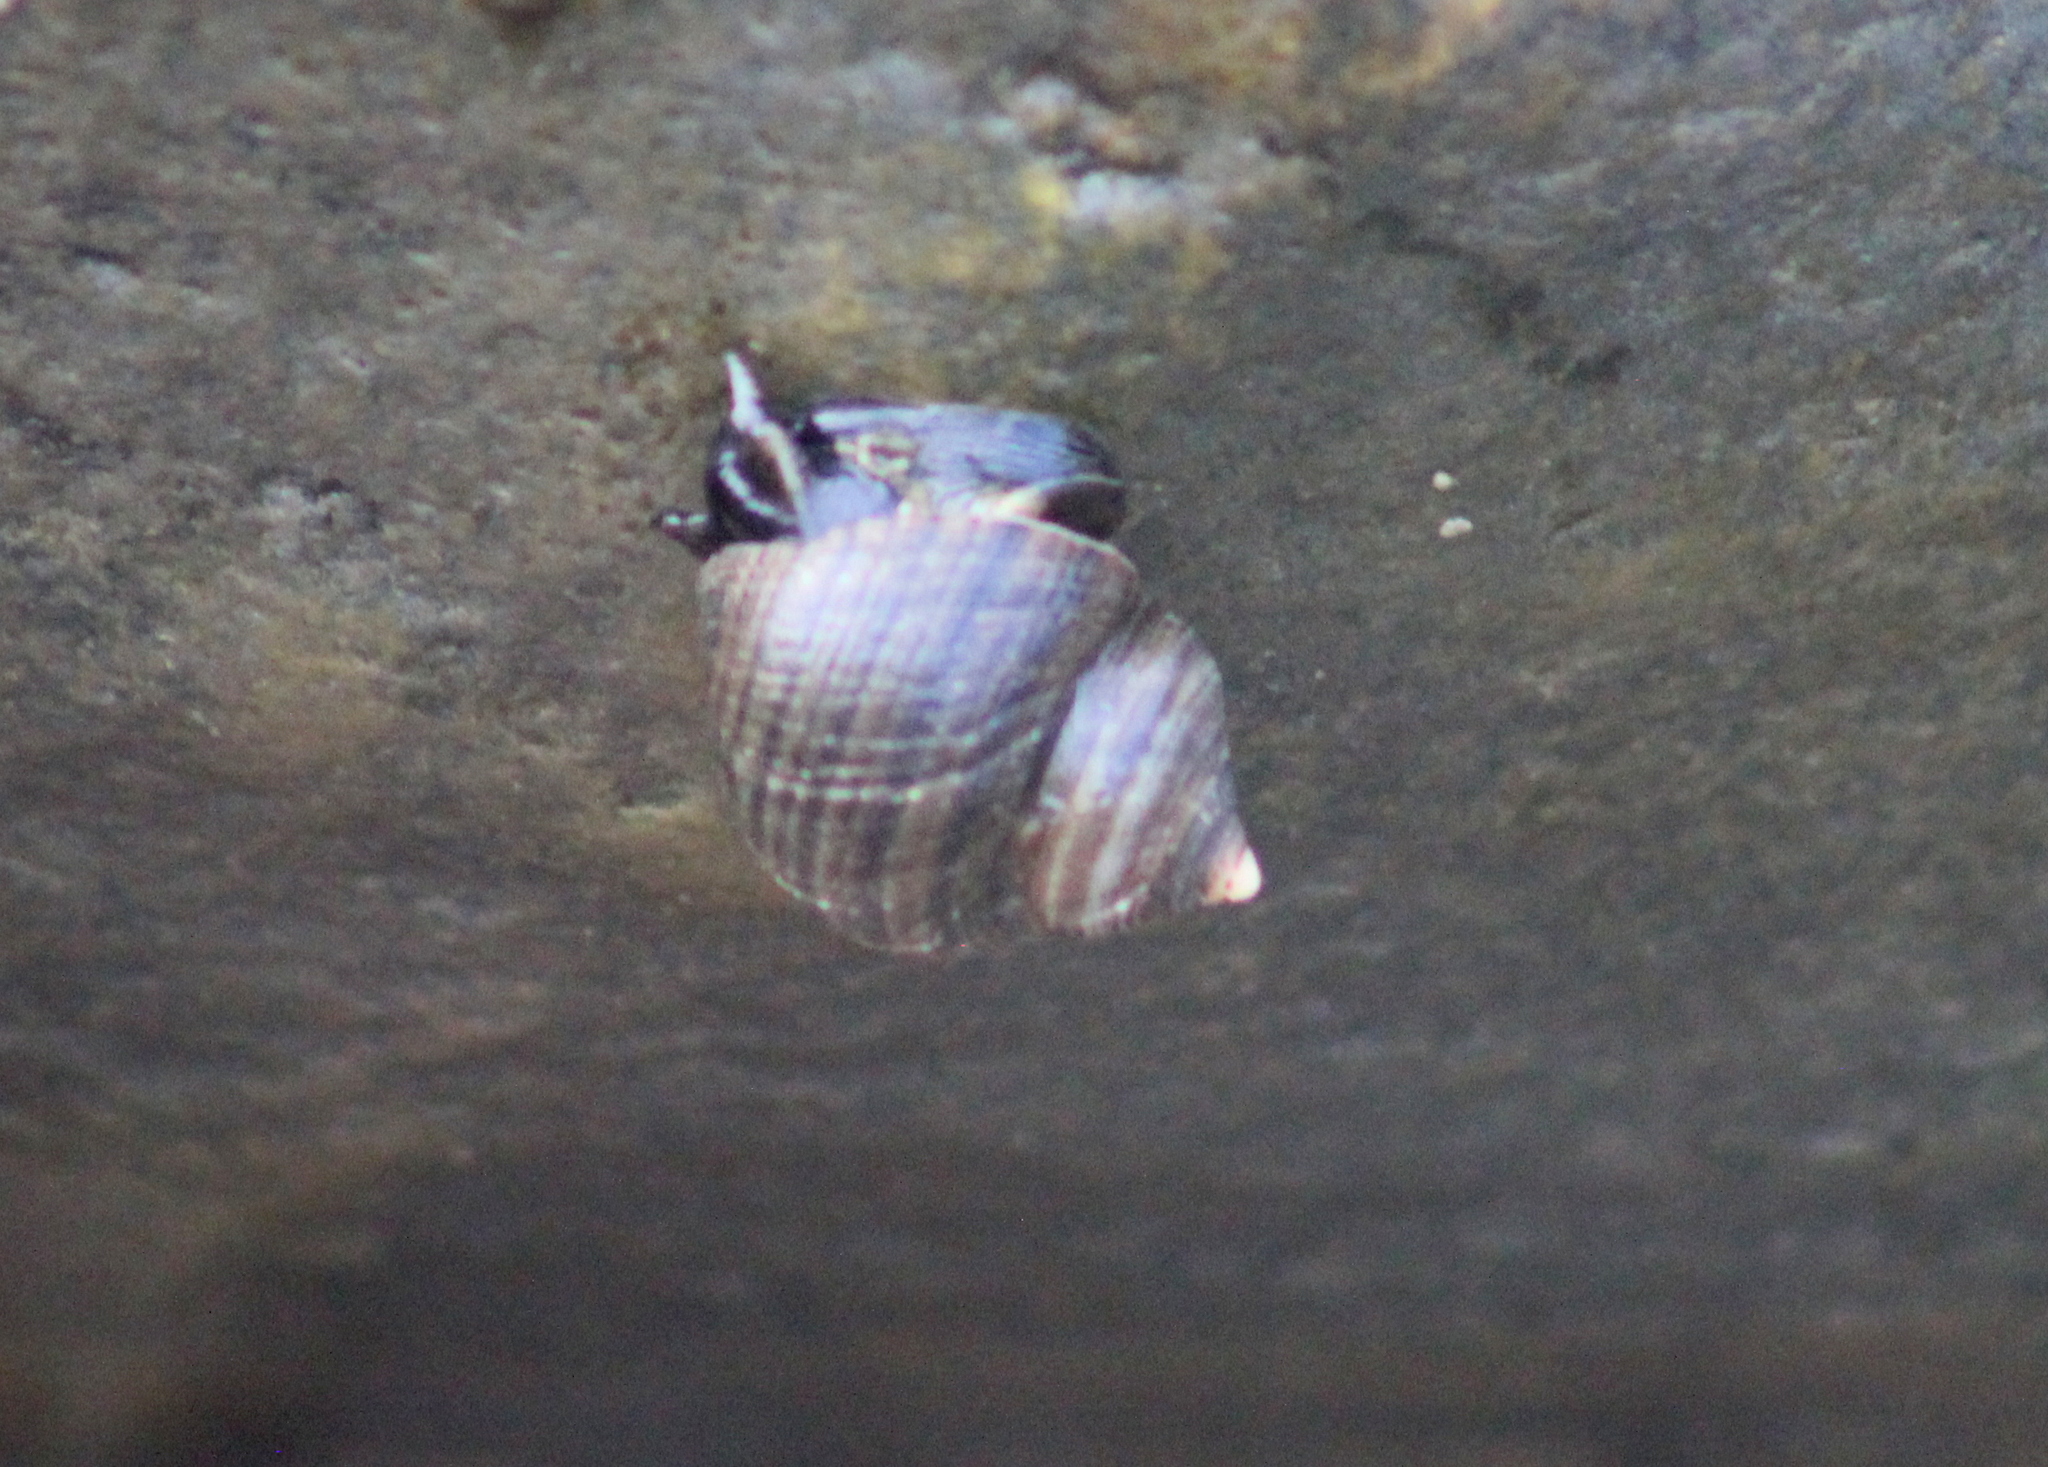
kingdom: Animalia
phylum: Mollusca
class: Gastropoda
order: Littorinimorpha
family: Littorinidae
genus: Littorina
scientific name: Littorina littorea
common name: Common periwinkle
